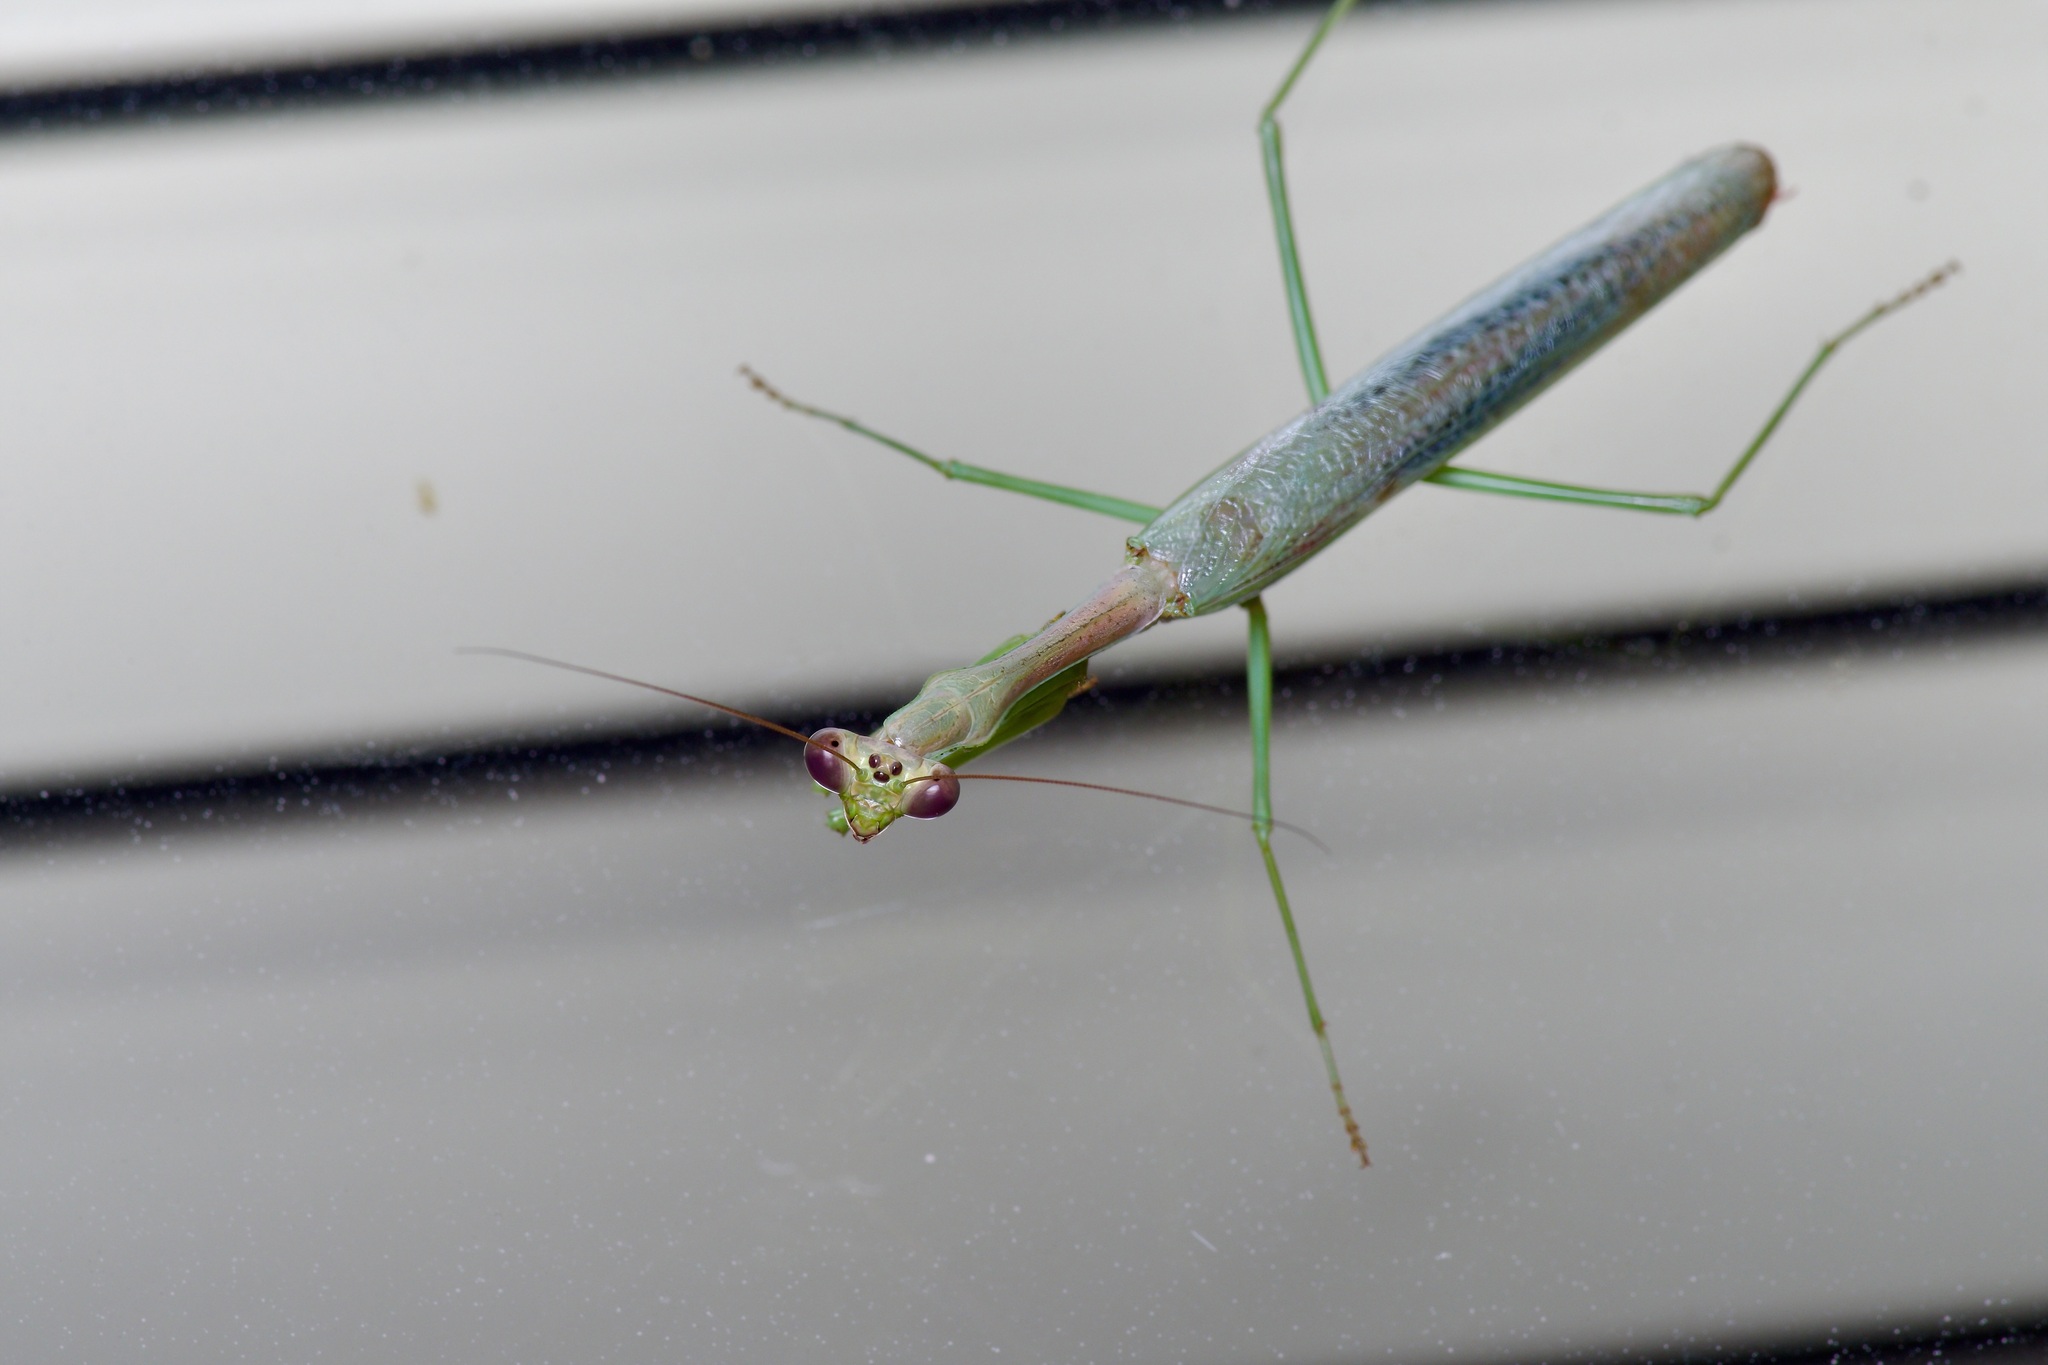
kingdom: Animalia
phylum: Arthropoda
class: Insecta
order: Mantodea
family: Mantidae
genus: Stagmomantis
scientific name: Stagmomantis carolina
